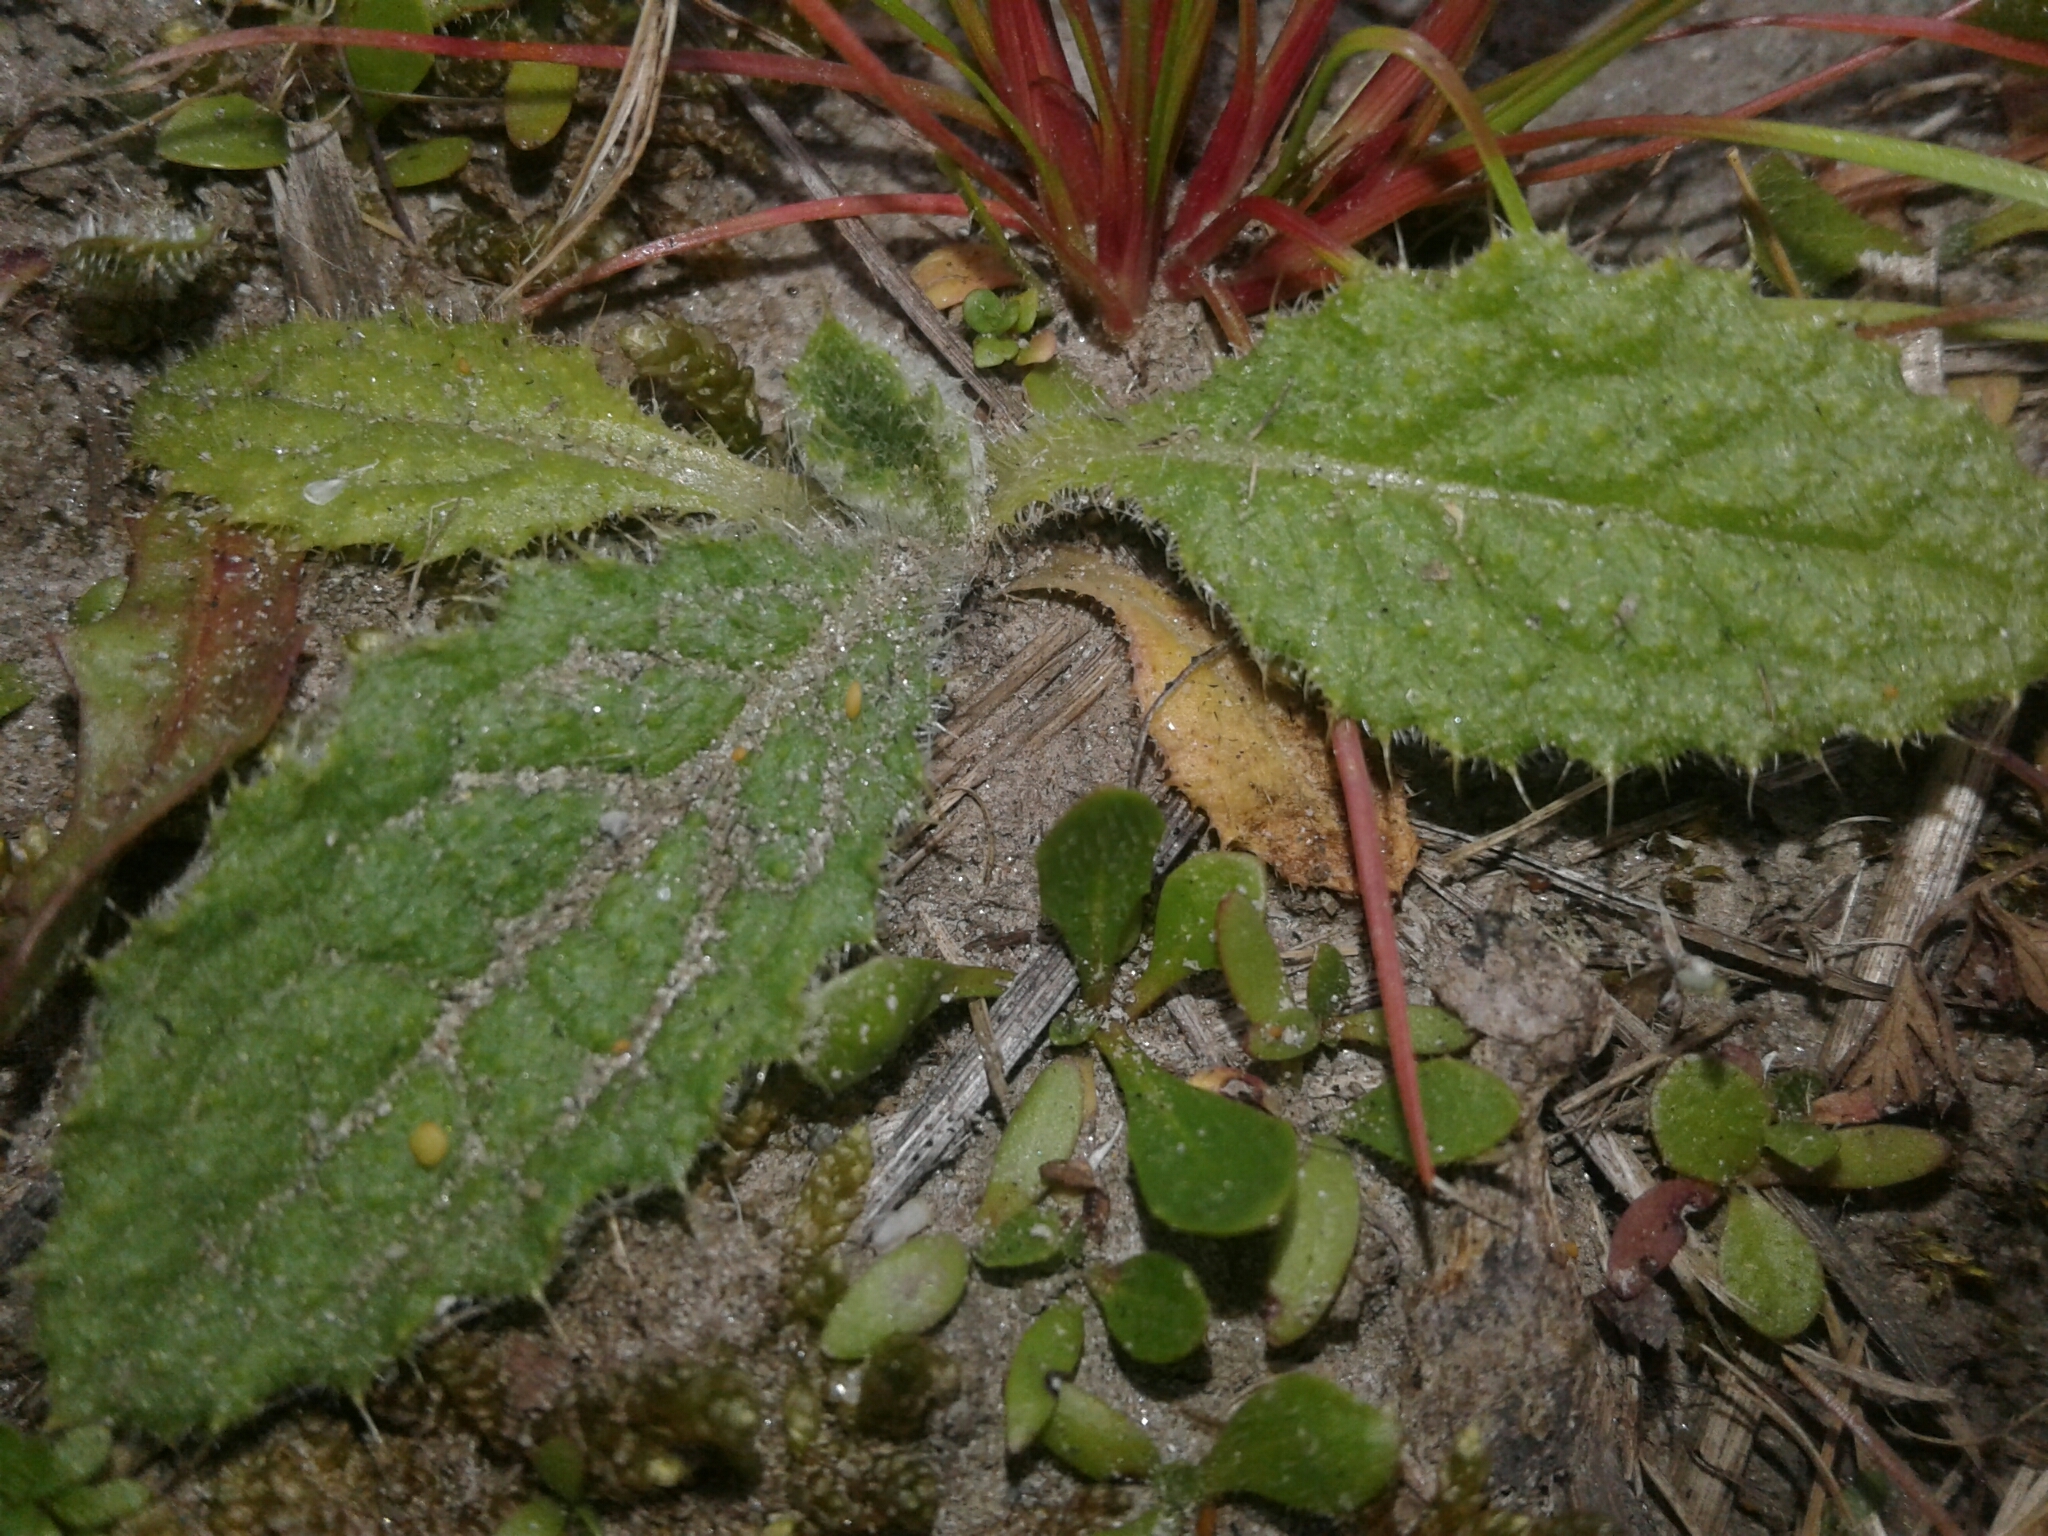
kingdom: Plantae
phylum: Tracheophyta
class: Magnoliopsida
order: Asterales
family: Asteraceae
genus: Cirsium
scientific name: Cirsium vulgare
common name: Bull thistle
